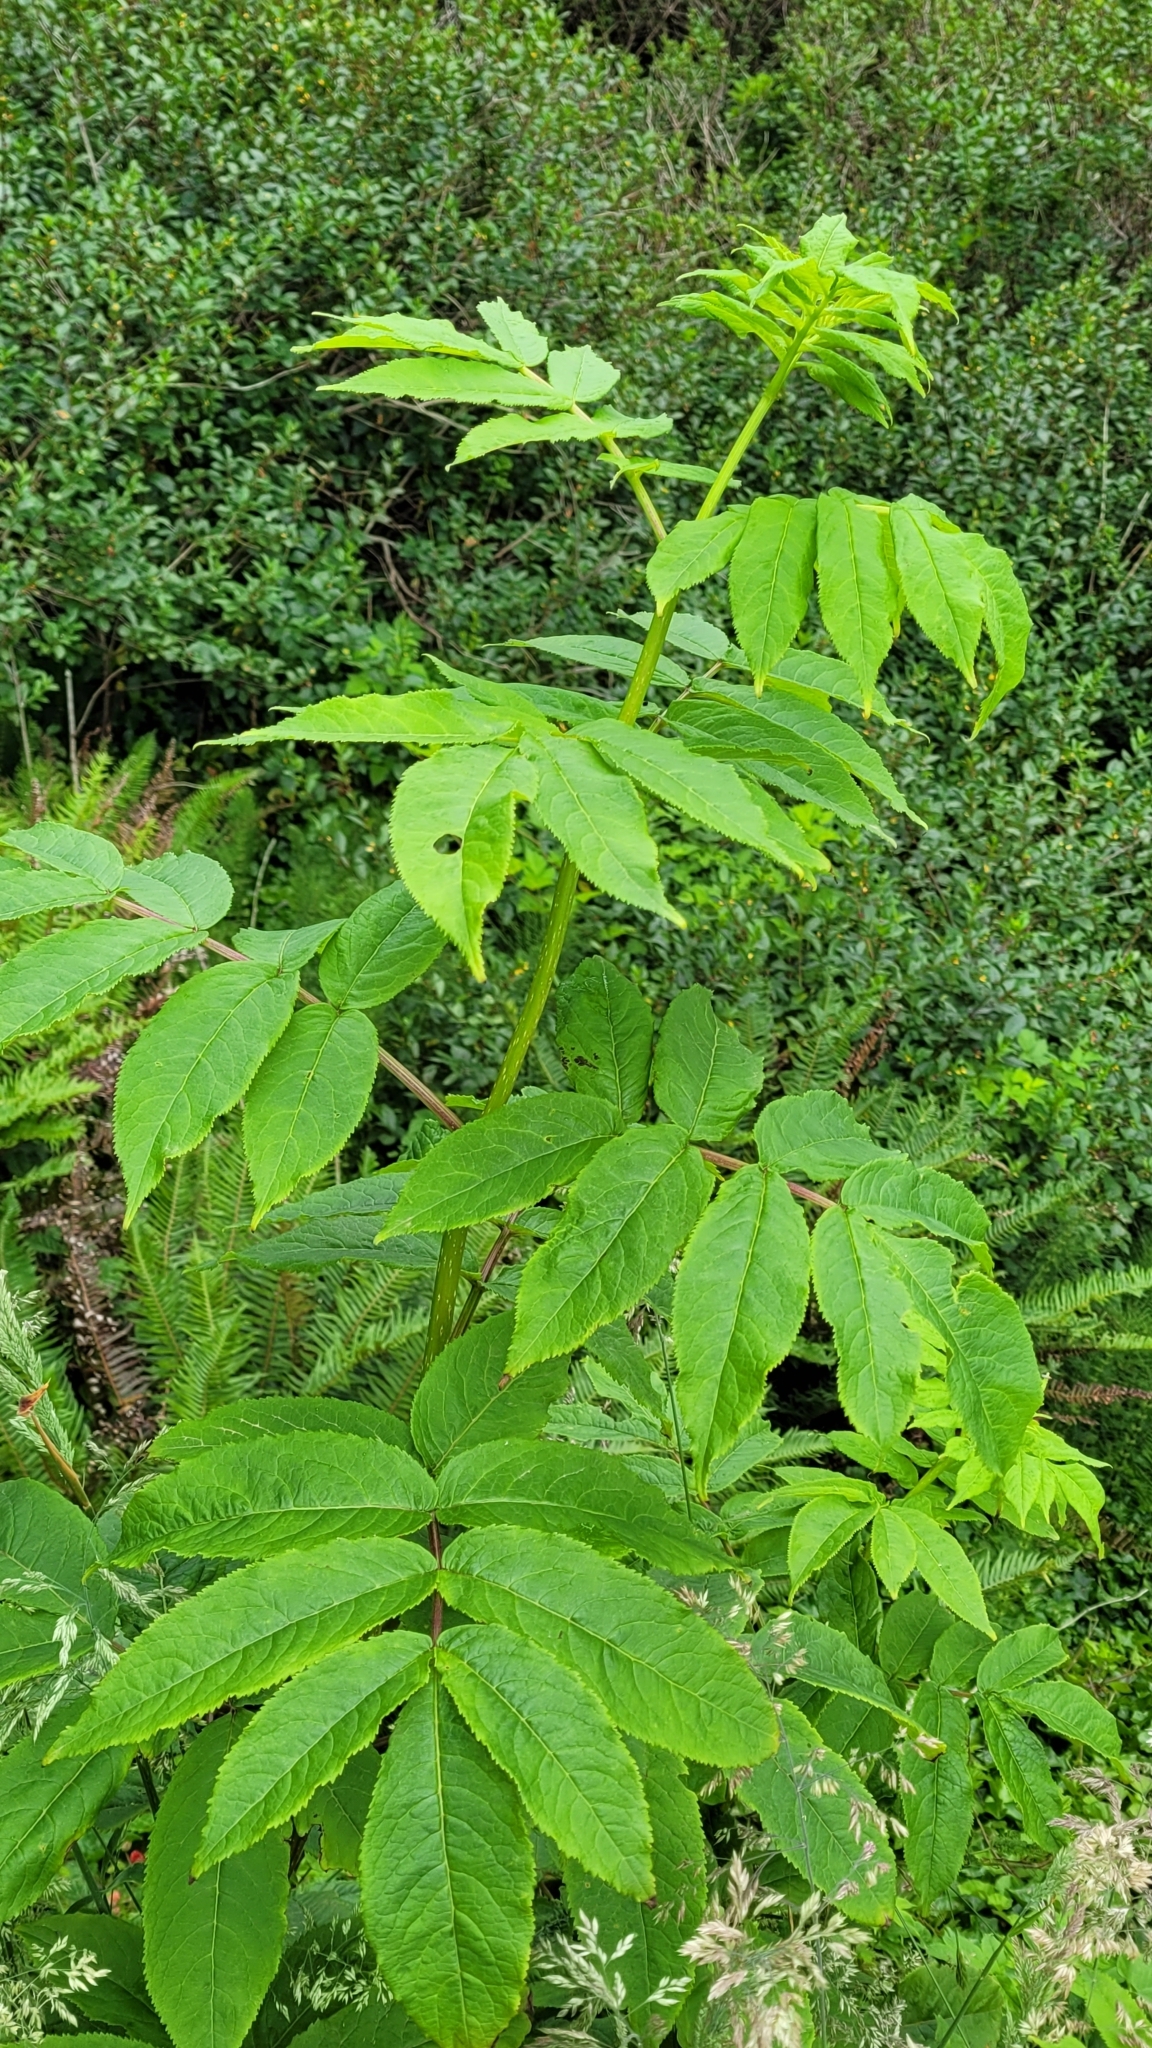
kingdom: Plantae
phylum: Tracheophyta
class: Magnoliopsida
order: Dipsacales
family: Viburnaceae
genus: Sambucus
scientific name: Sambucus racemosa
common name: Red-berried elder
